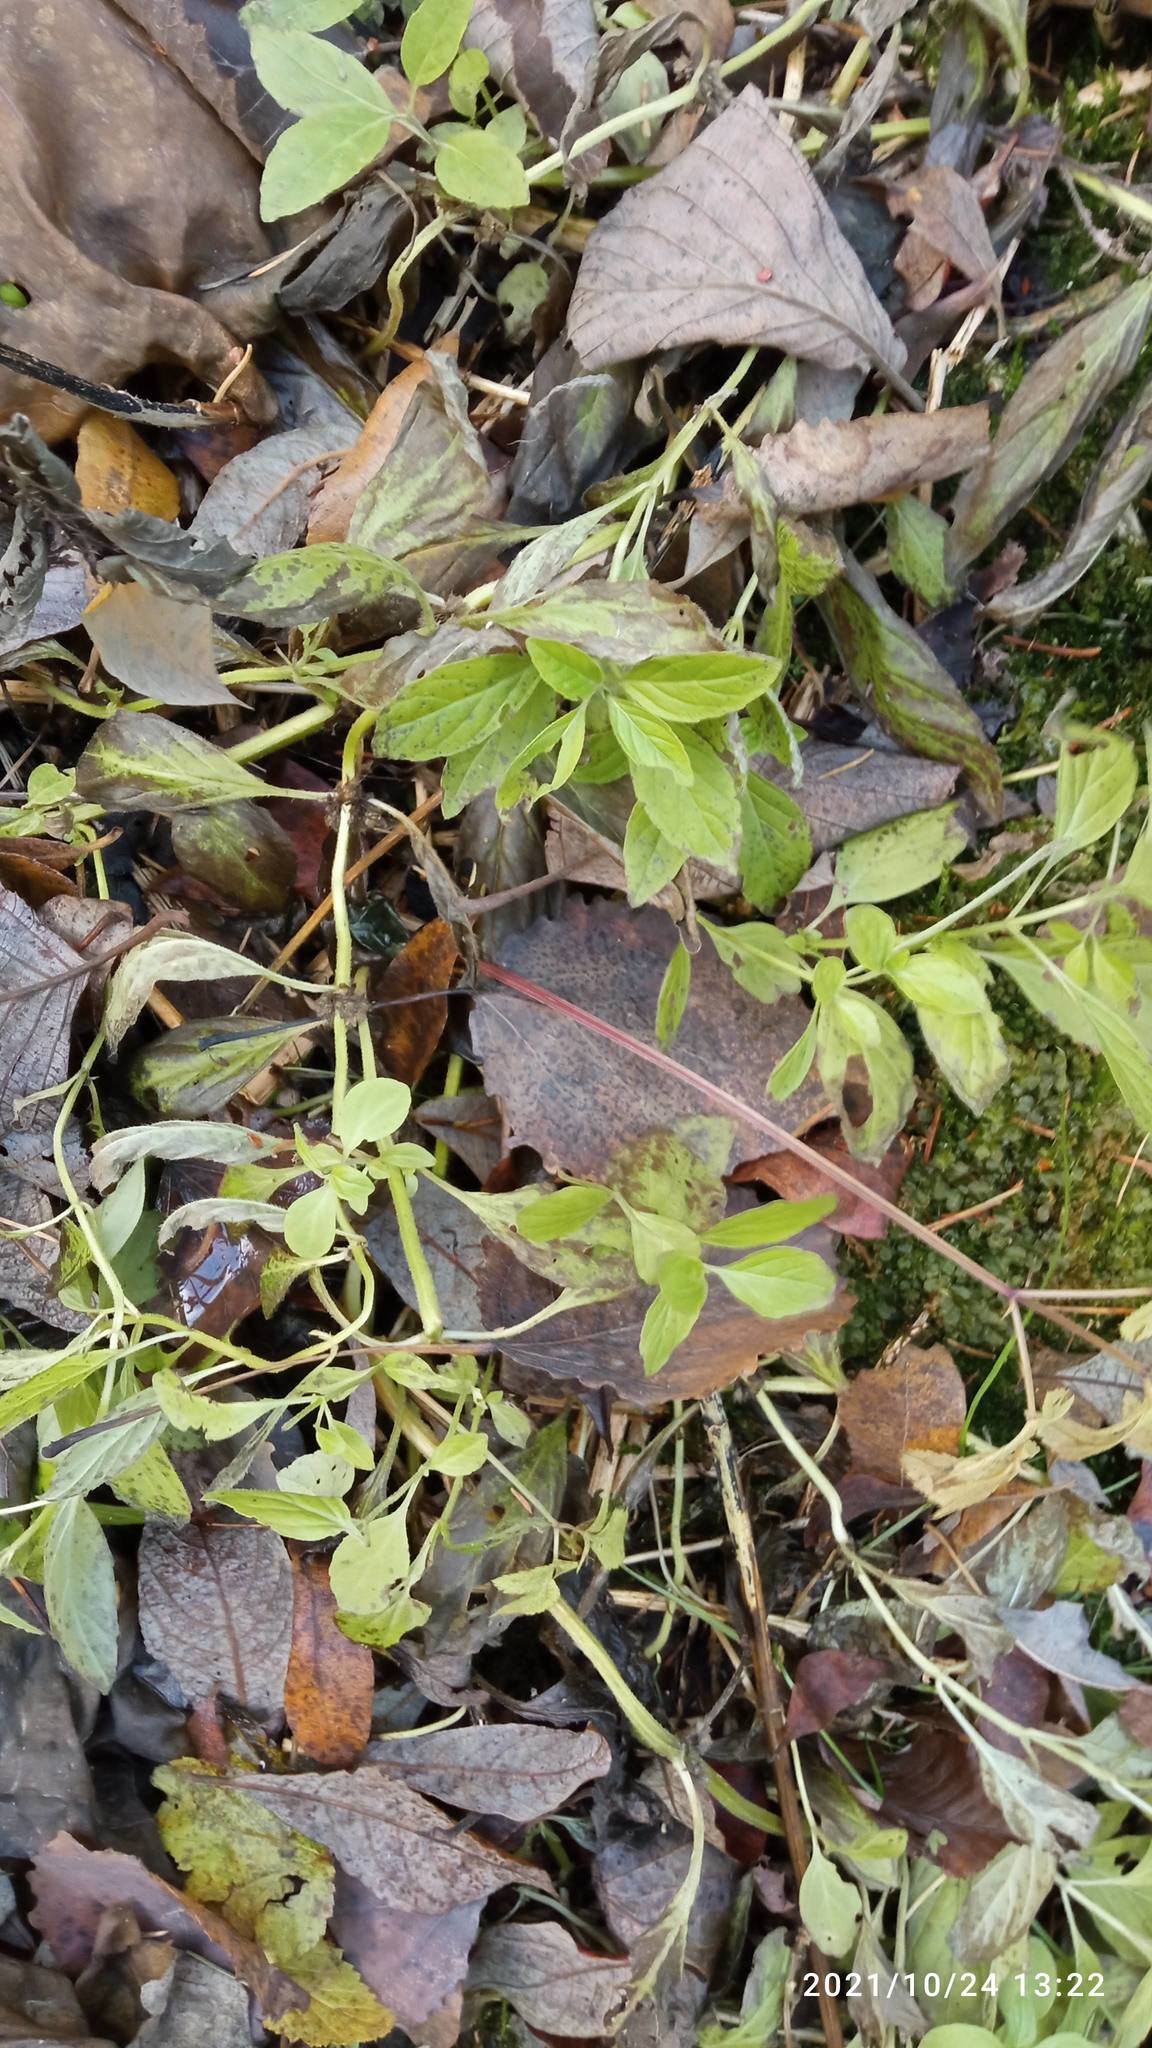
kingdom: Plantae
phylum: Tracheophyta
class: Magnoliopsida
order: Lamiales
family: Lamiaceae
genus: Mentha
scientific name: Mentha arvensis
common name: Corn mint
